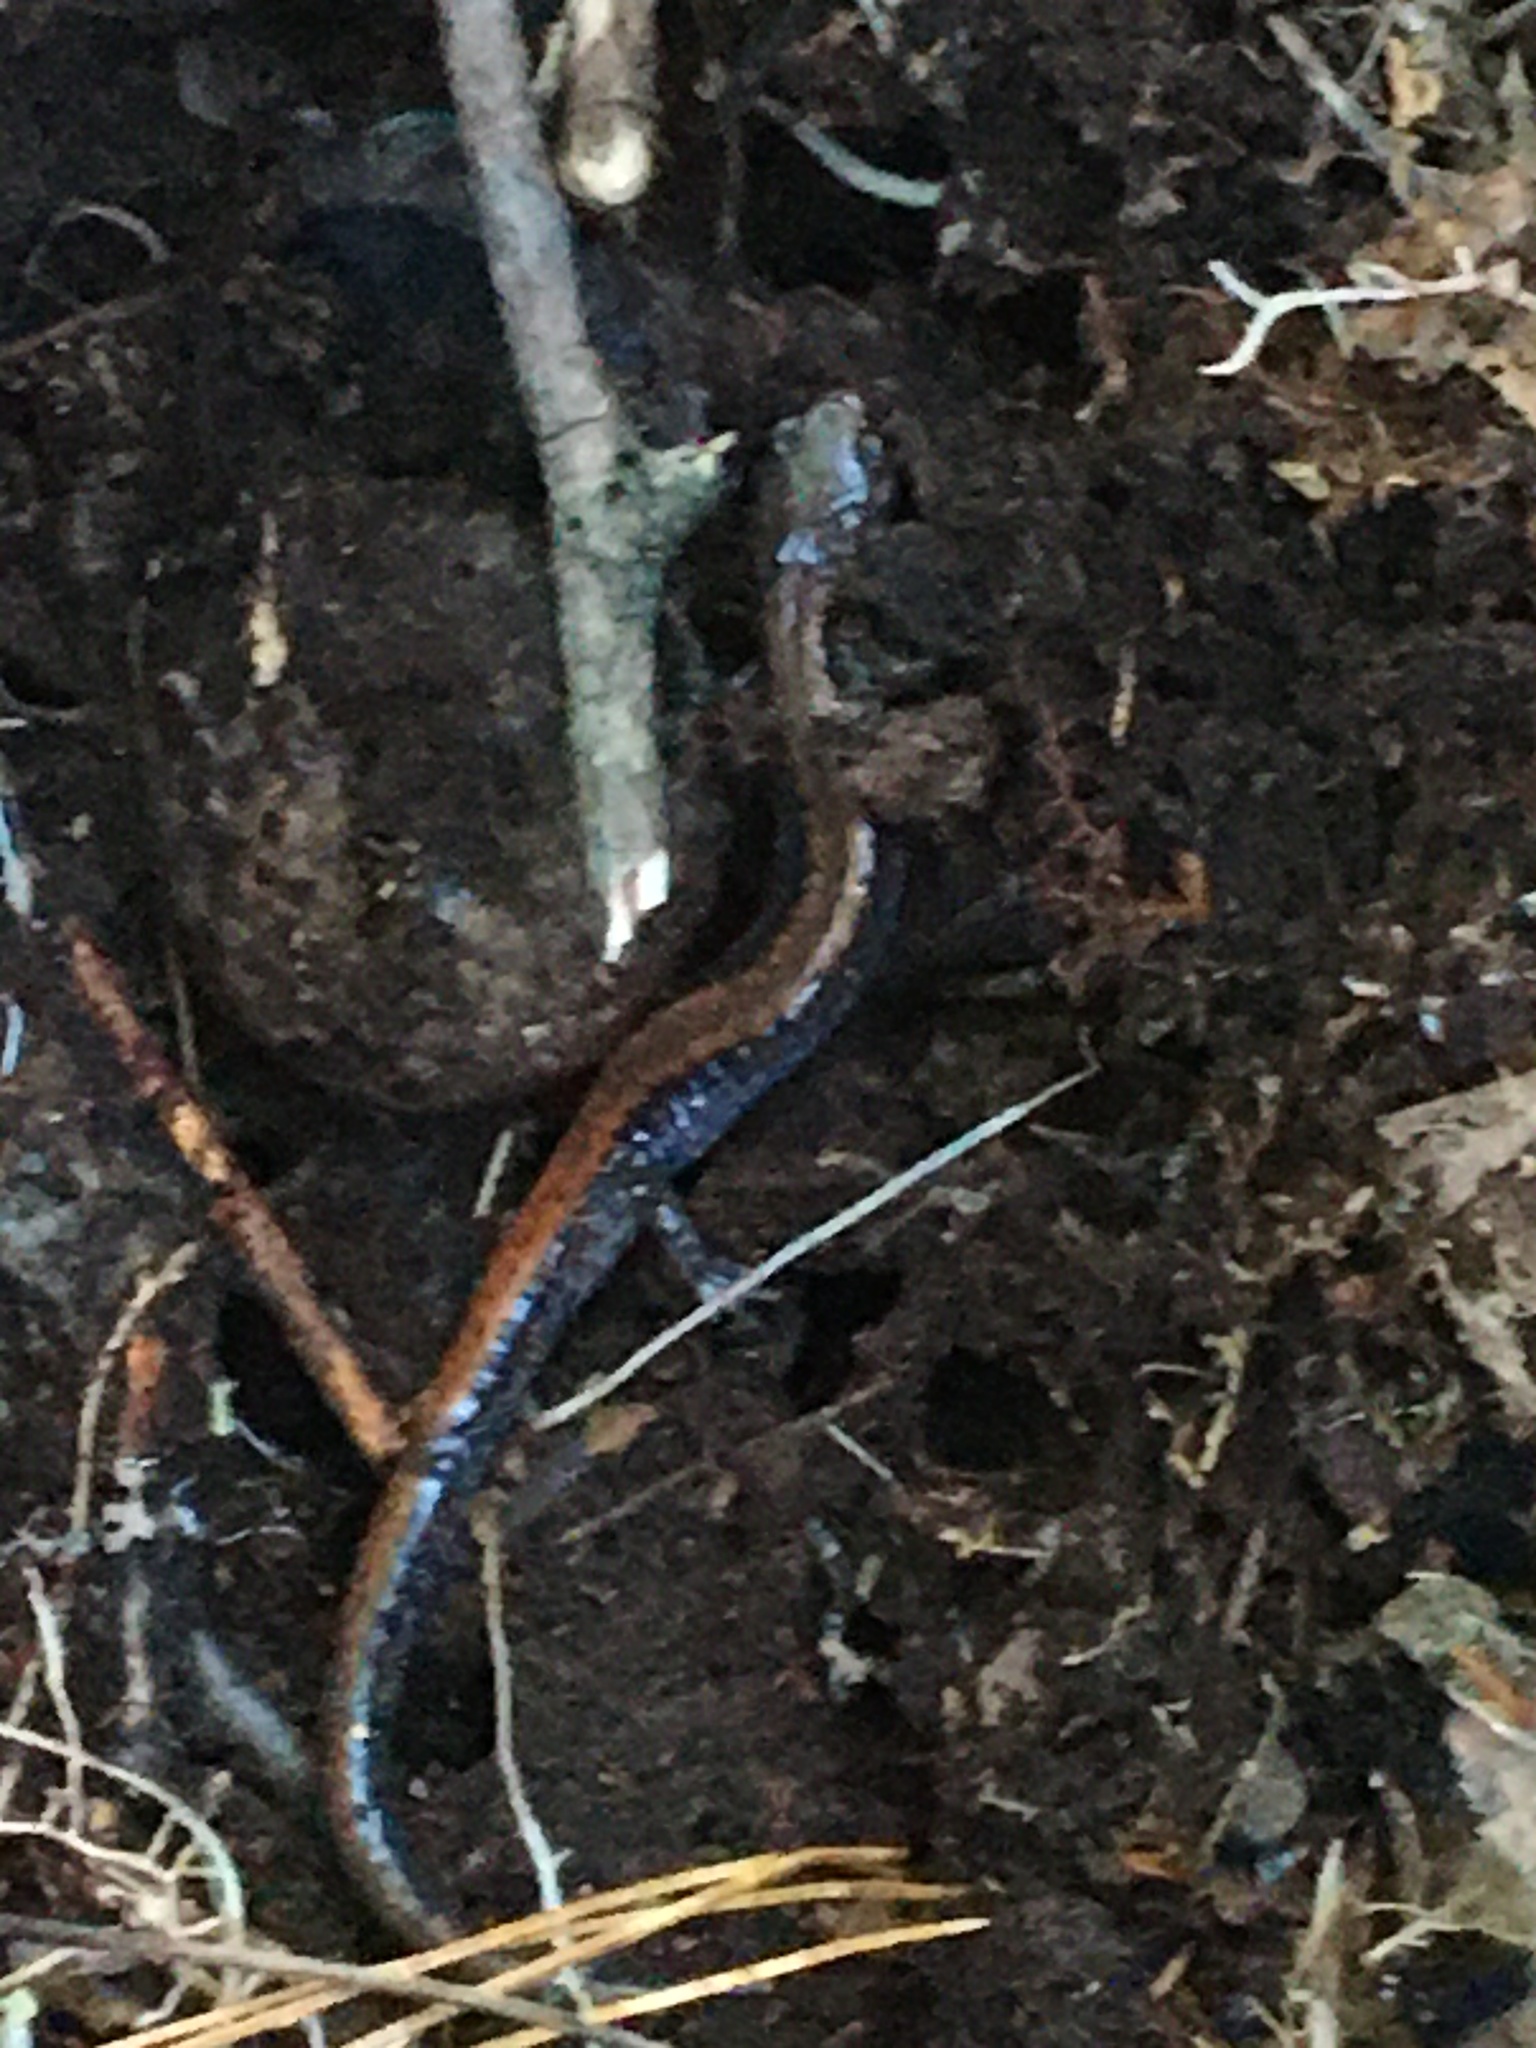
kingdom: Animalia
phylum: Chordata
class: Amphibia
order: Caudata
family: Plethodontidae
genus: Plethodon
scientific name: Plethodon cinereus
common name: Redback salamander
